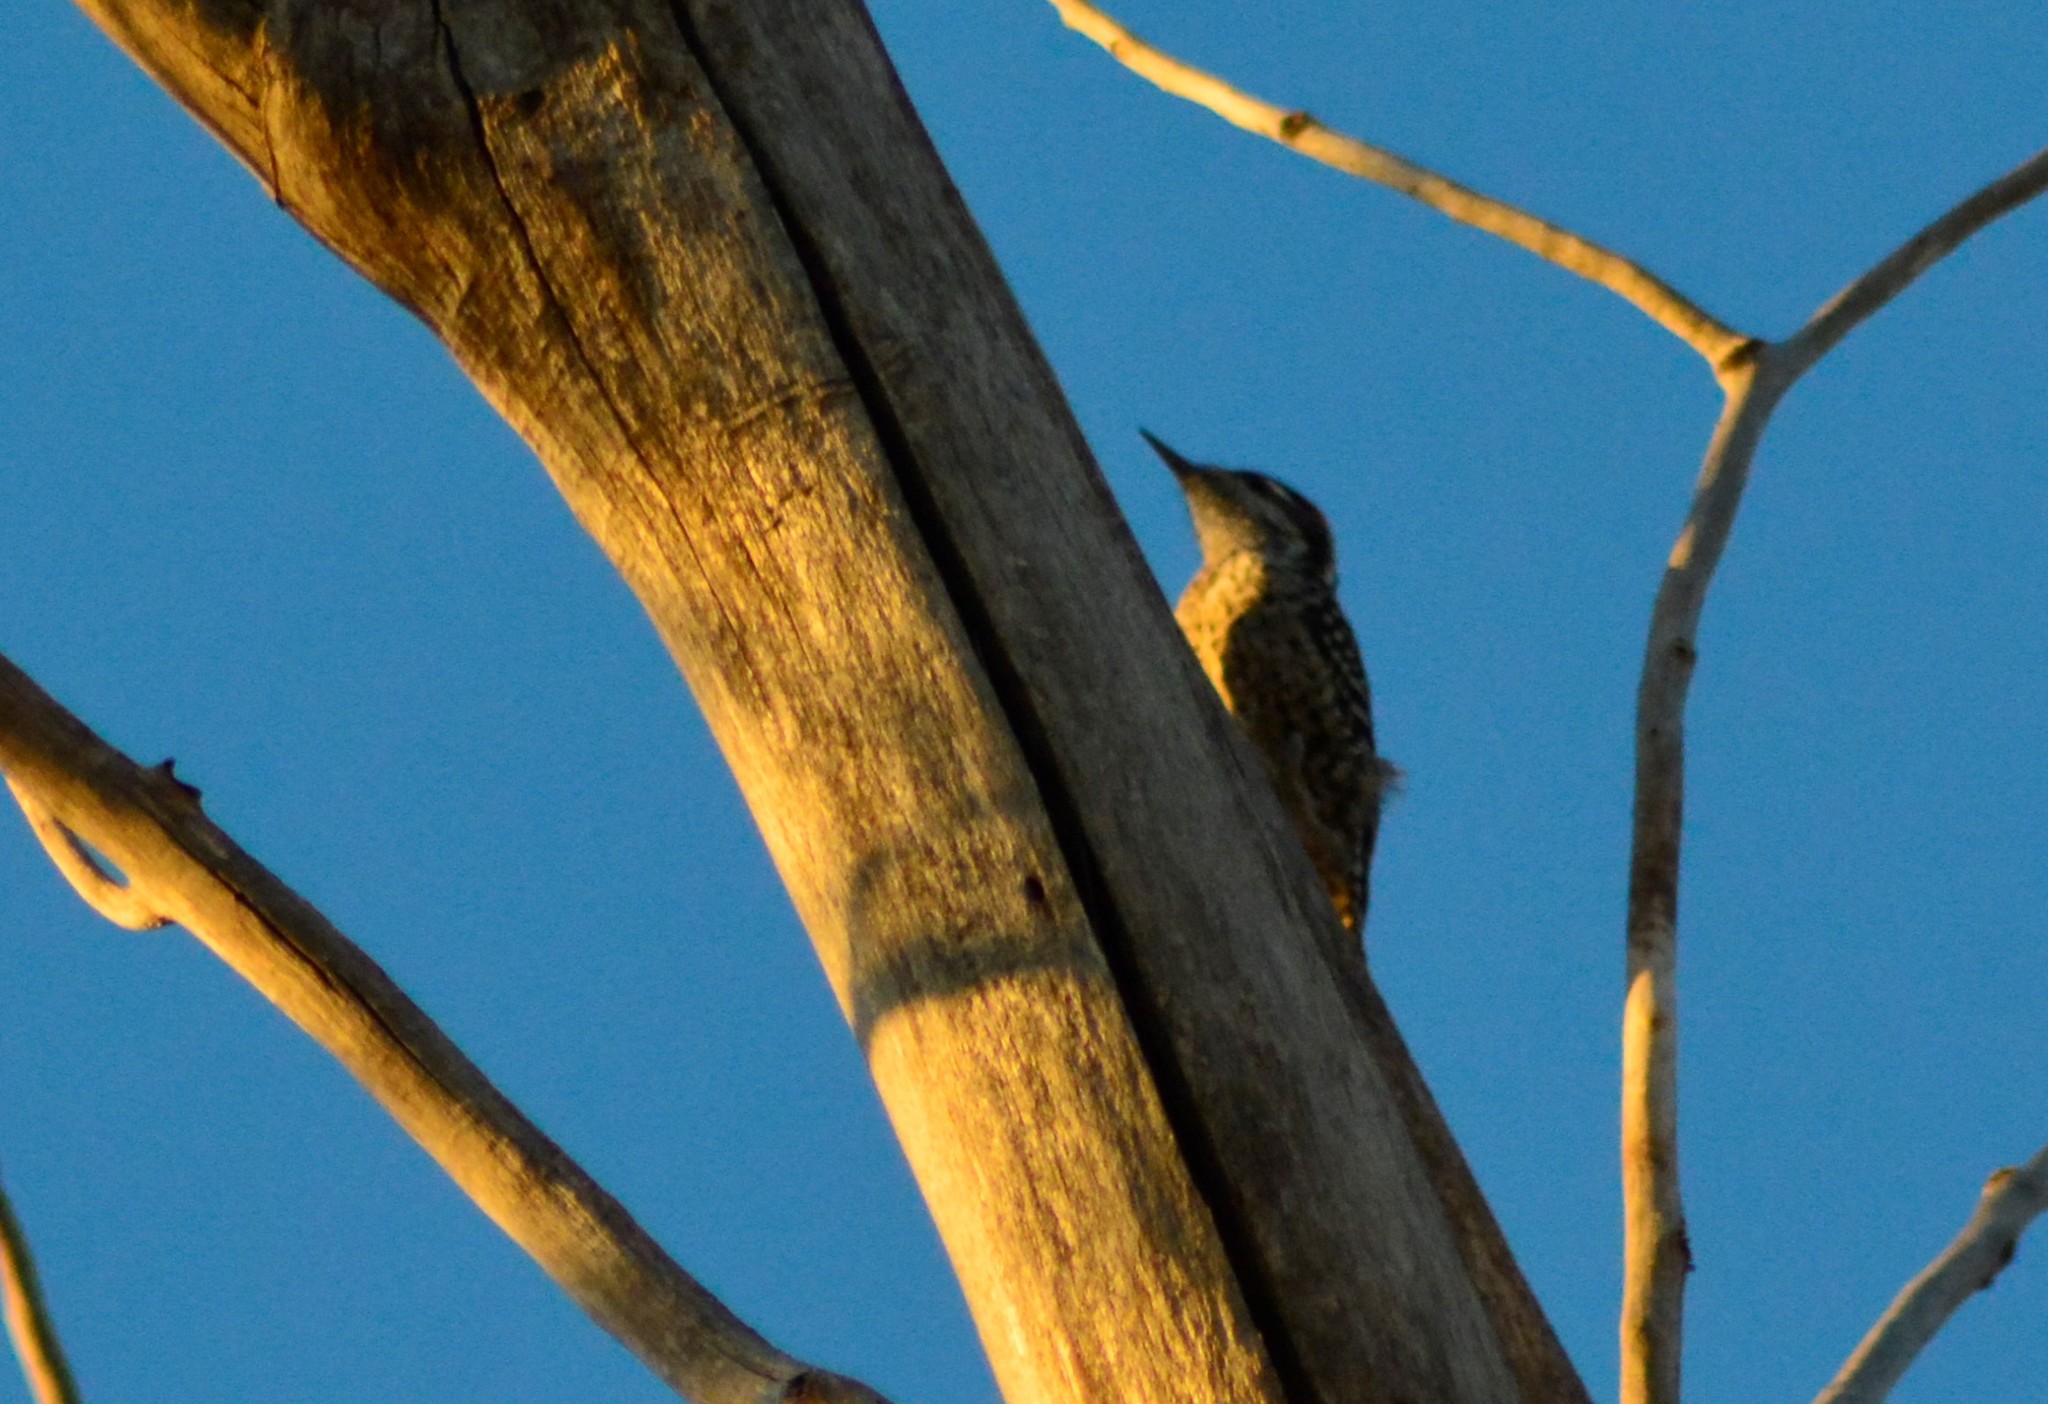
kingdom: Animalia
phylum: Chordata
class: Aves
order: Piciformes
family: Picidae
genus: Veniliornis
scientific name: Veniliornis mixtus
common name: Checkered woodpecker
